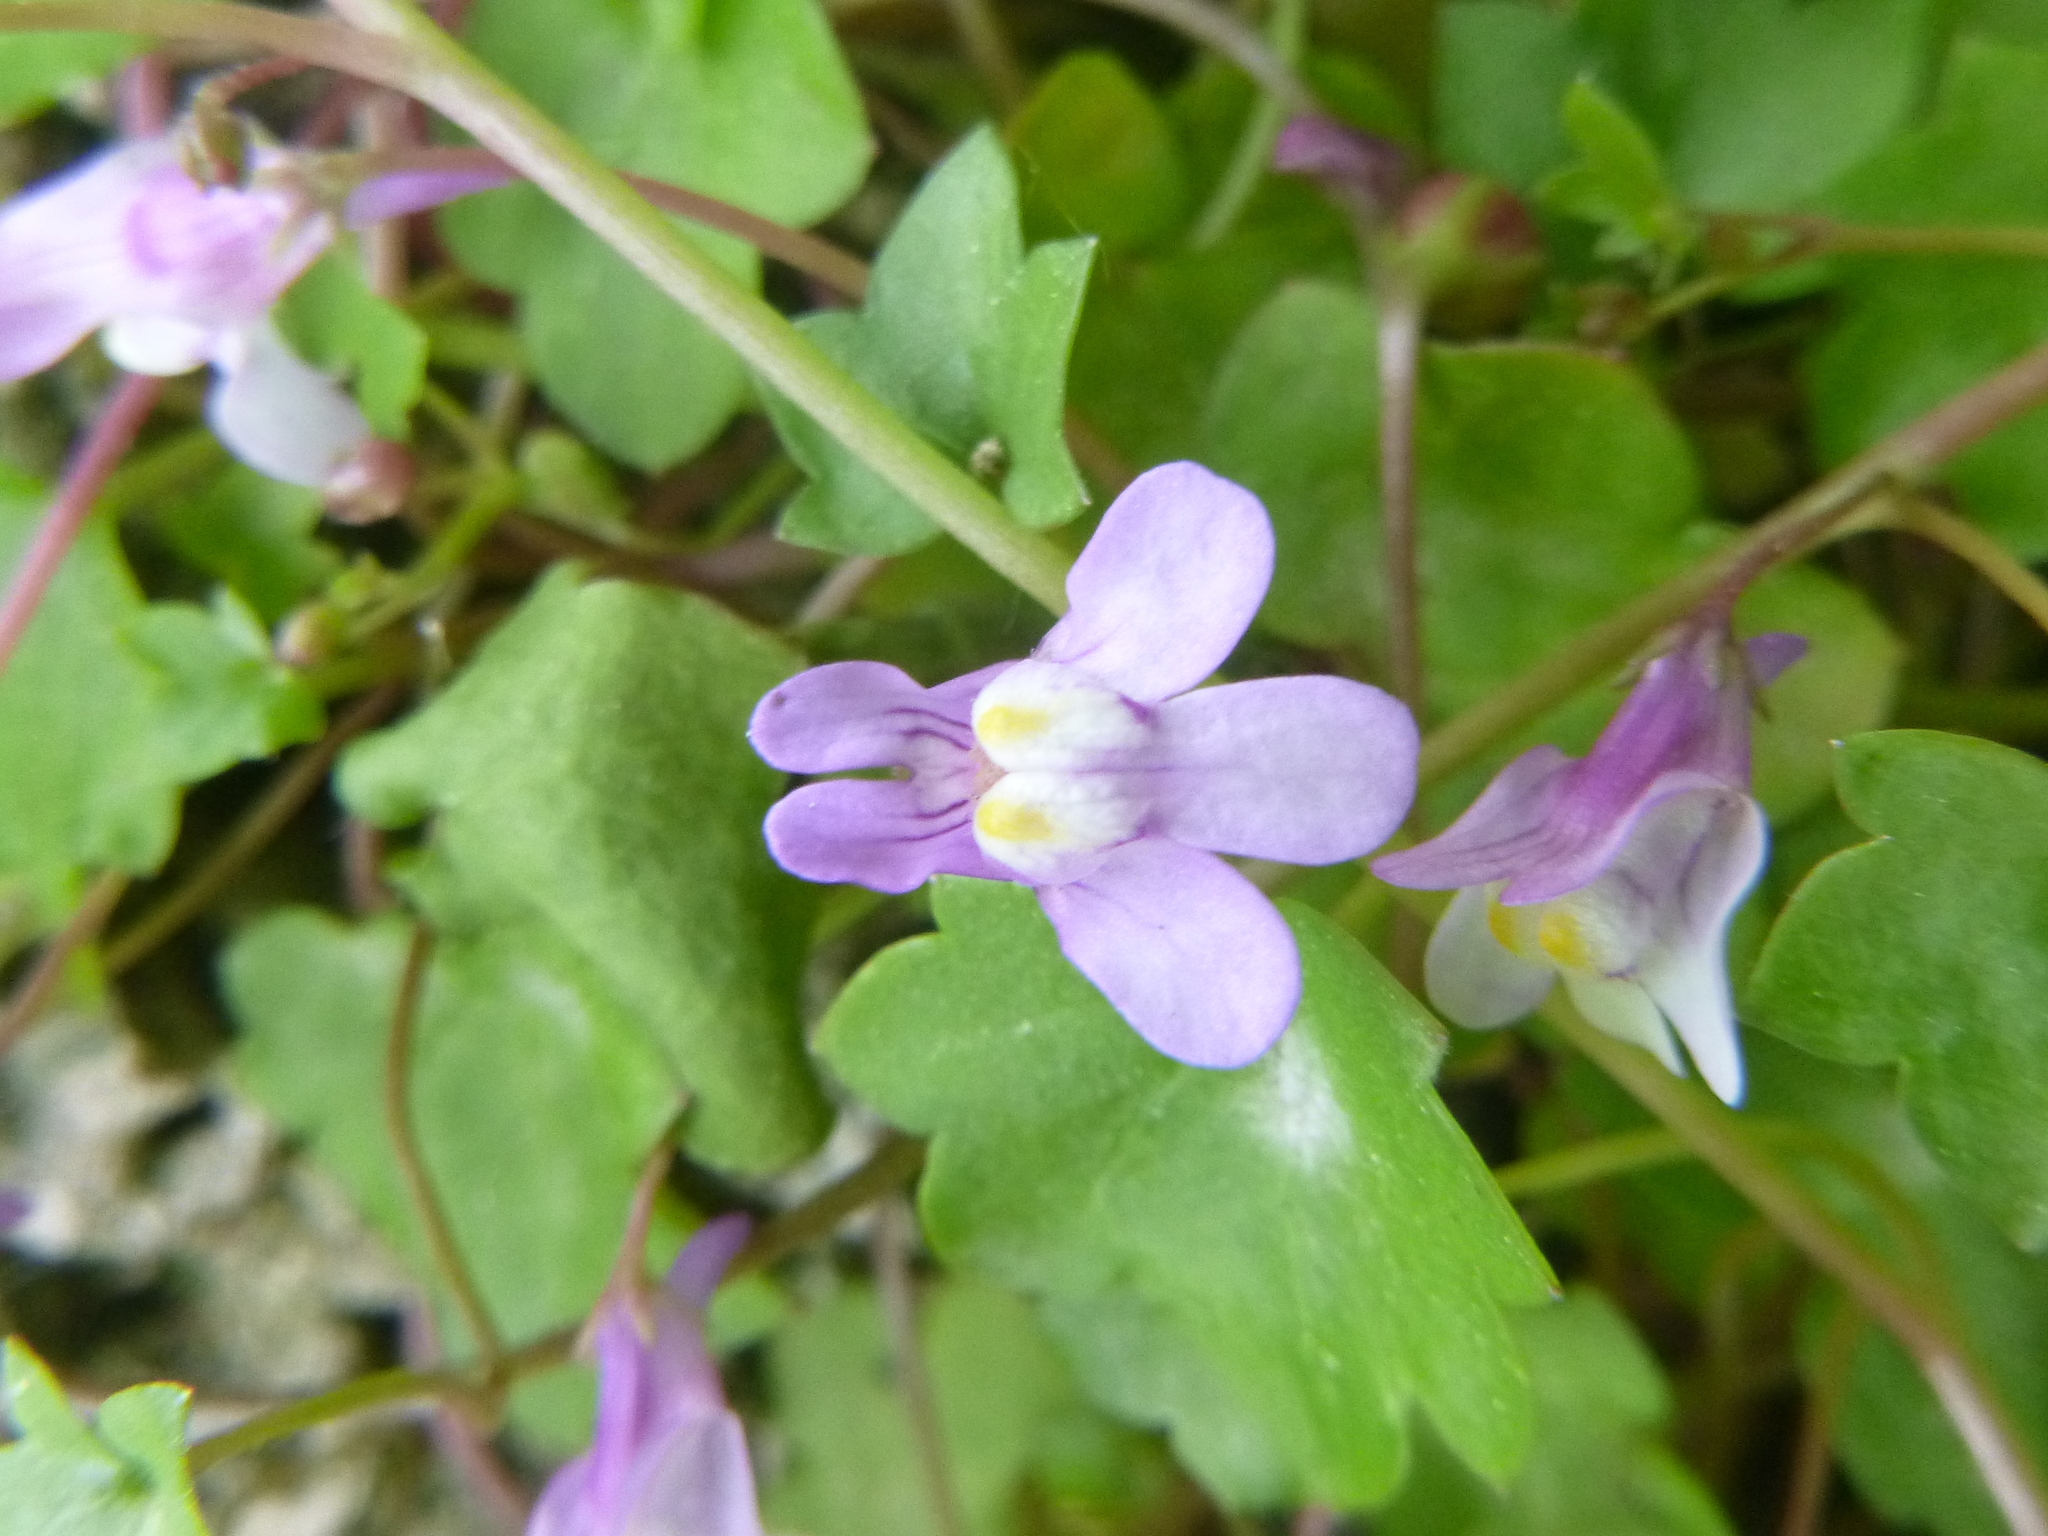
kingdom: Plantae
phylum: Tracheophyta
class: Magnoliopsida
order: Lamiales
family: Plantaginaceae
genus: Cymbalaria
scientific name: Cymbalaria muralis
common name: Ivy-leaved toadflax
